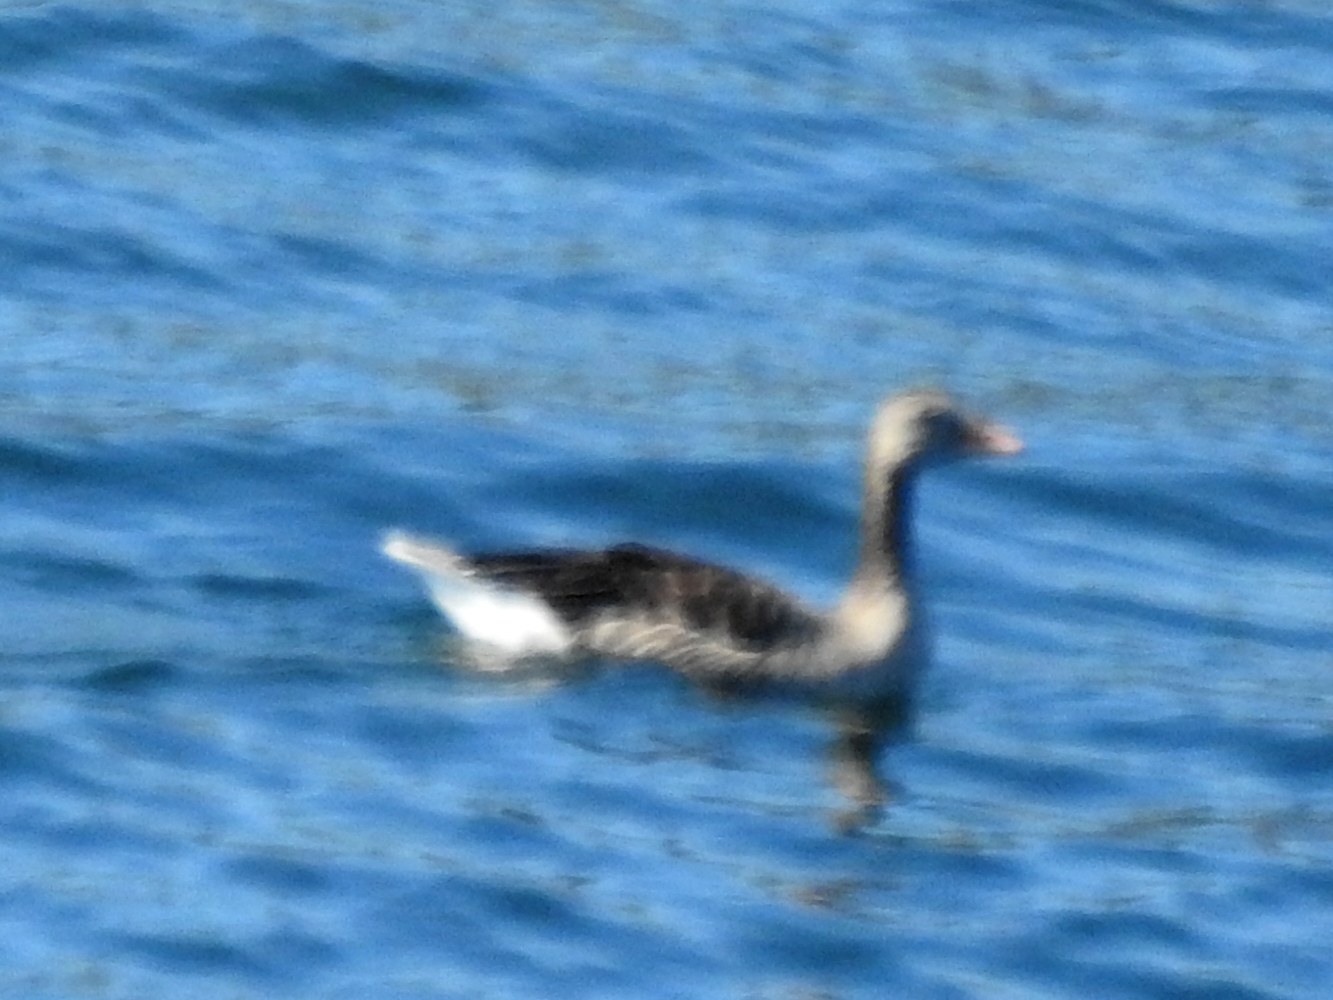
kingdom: Animalia
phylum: Chordata
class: Aves
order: Anseriformes
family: Anatidae
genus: Anser
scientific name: Anser anser
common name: Greylag goose
